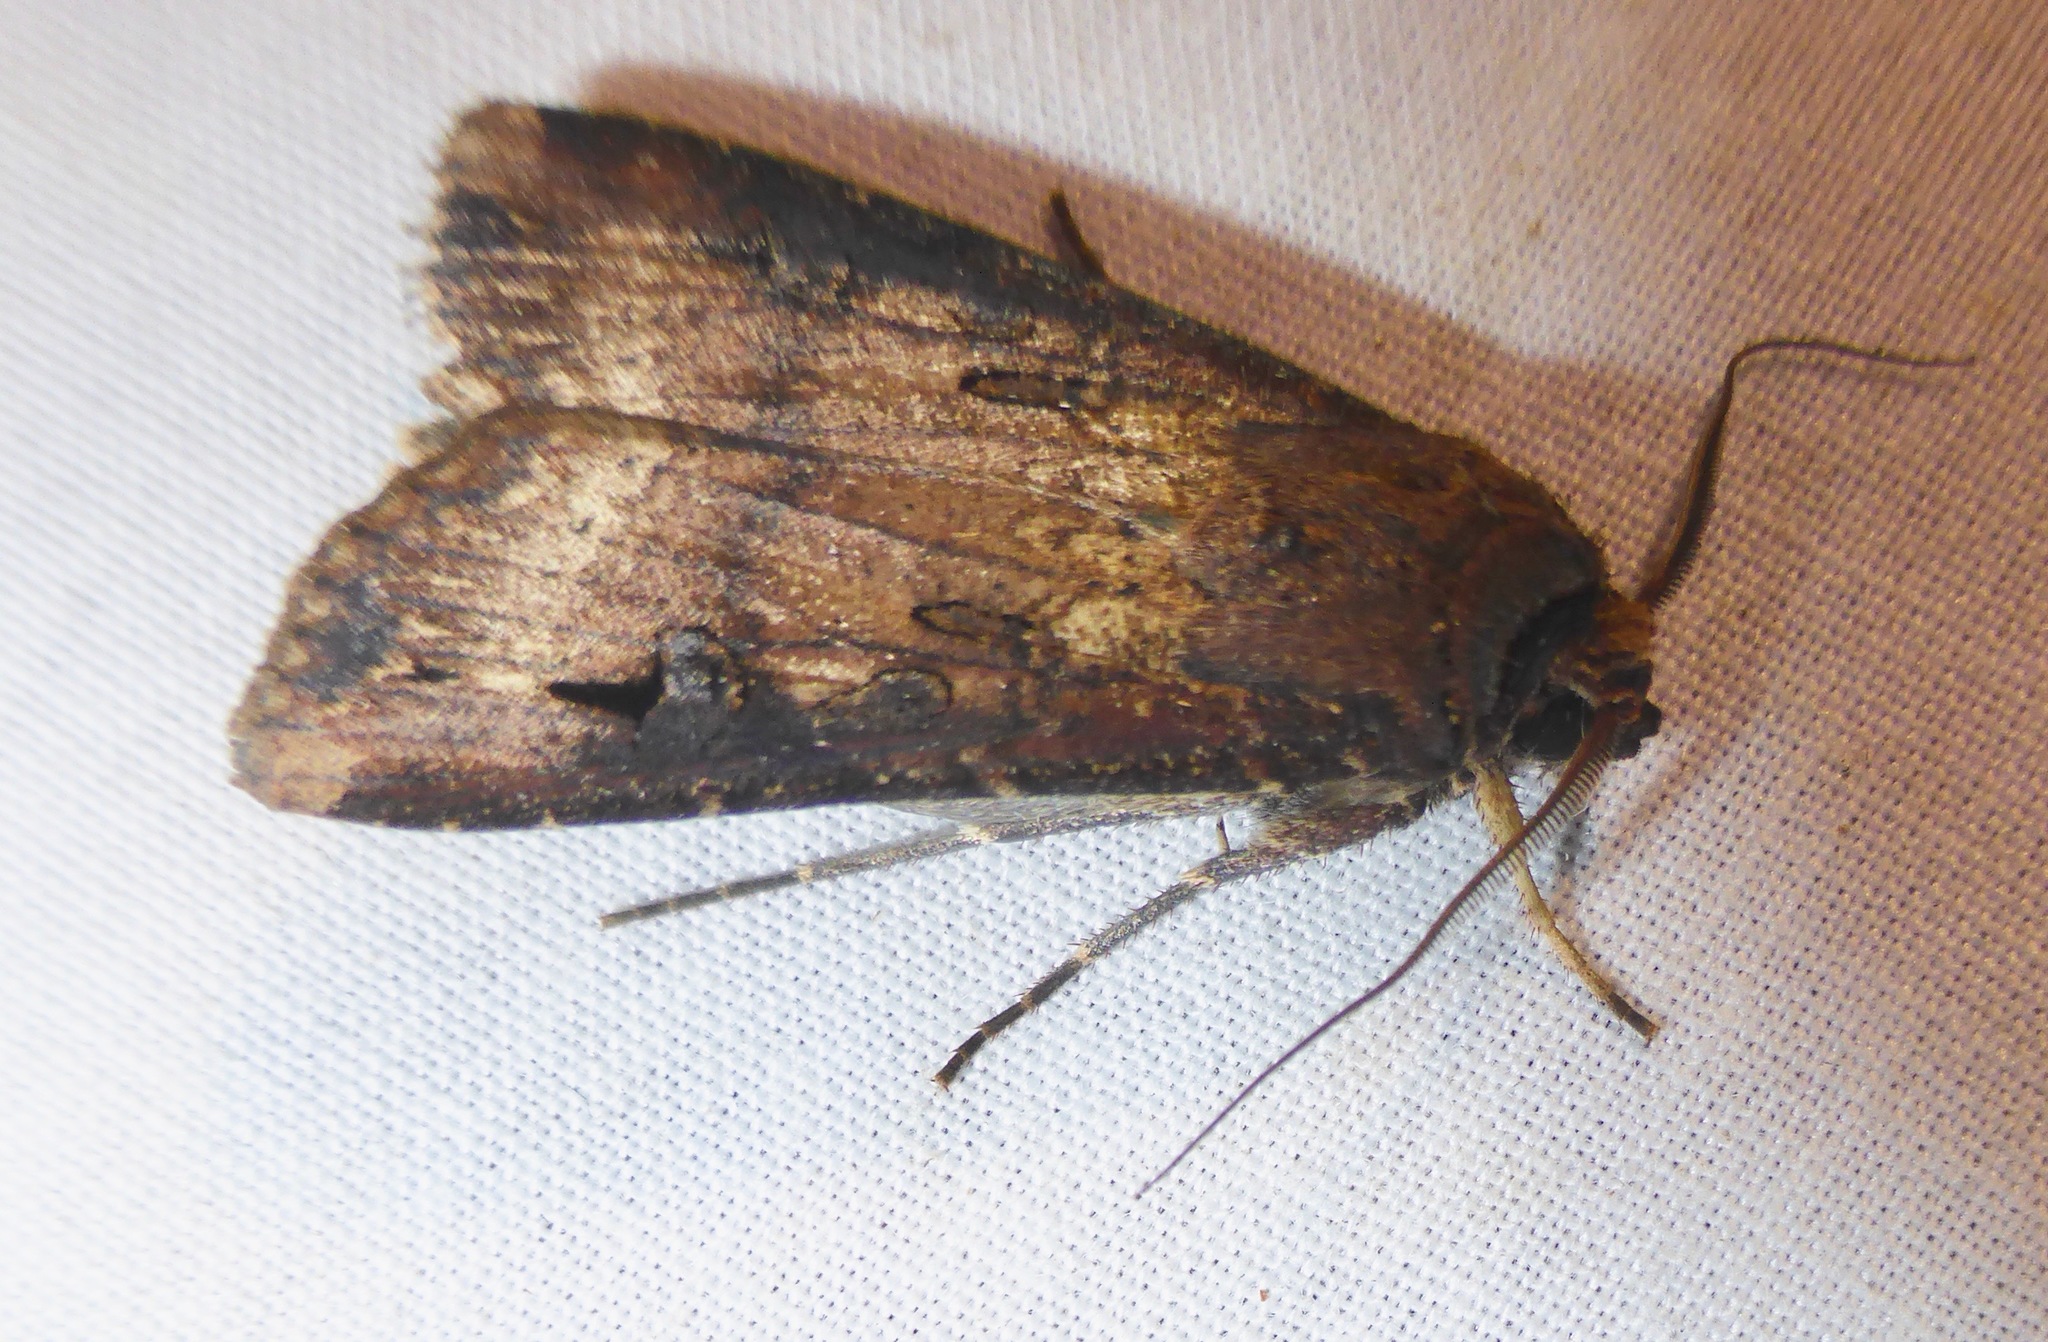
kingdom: Animalia
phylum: Arthropoda
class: Insecta
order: Lepidoptera
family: Noctuidae
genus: Agrotis
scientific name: Agrotis ipsilon
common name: Dark sword-grass
